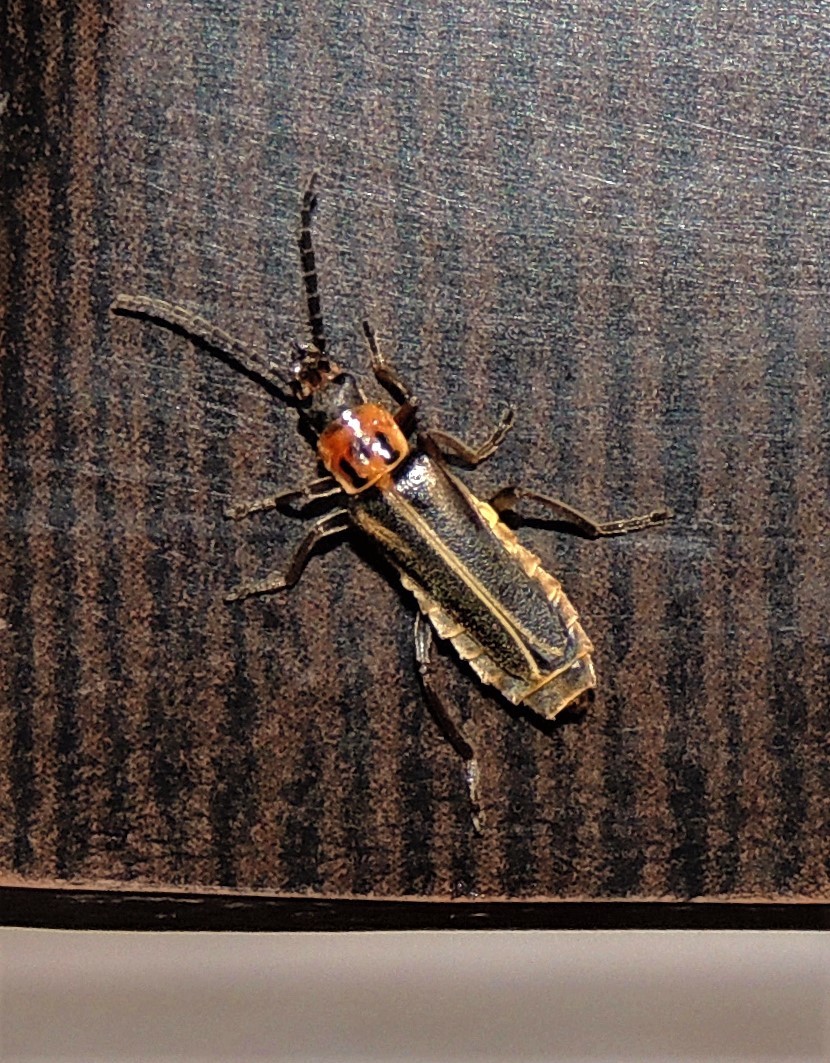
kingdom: Animalia
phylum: Arthropoda
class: Insecta
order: Coleoptera
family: Cantharidae
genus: Chauliognathus
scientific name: Chauliognathus
